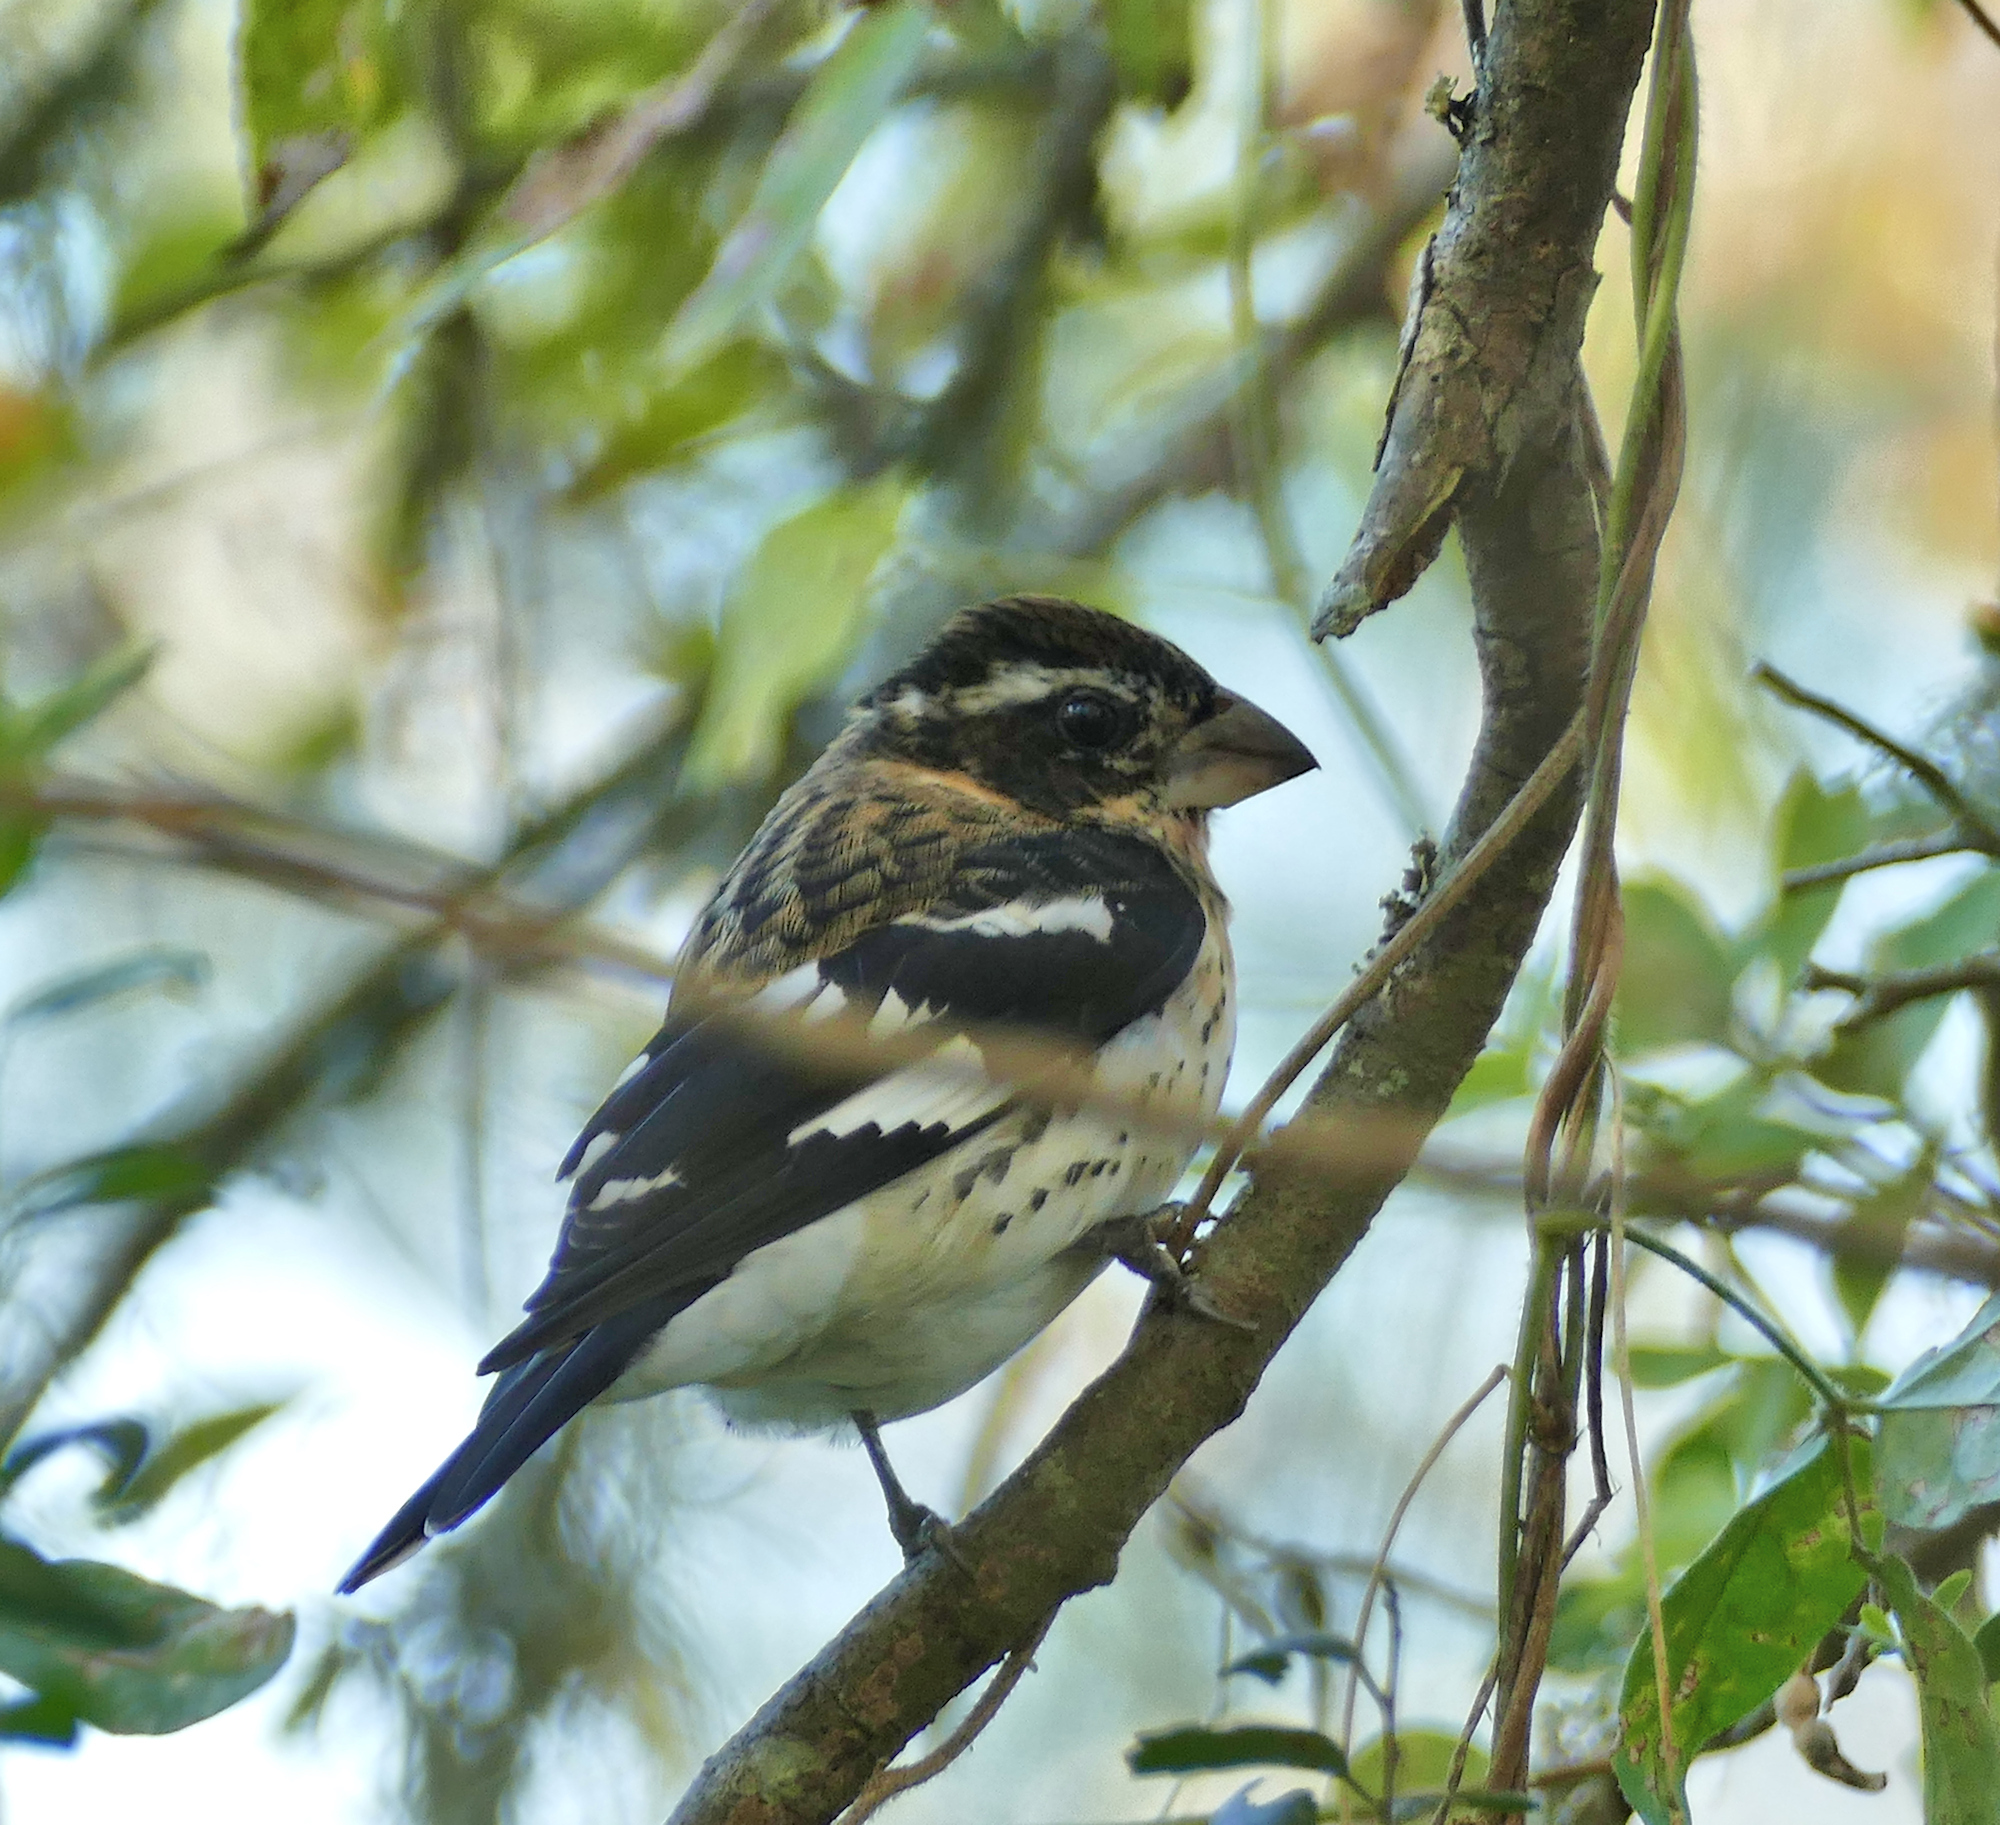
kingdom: Animalia
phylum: Chordata
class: Aves
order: Passeriformes
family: Cardinalidae
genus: Pheucticus
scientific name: Pheucticus ludovicianus
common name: Rose-breasted grosbeak
